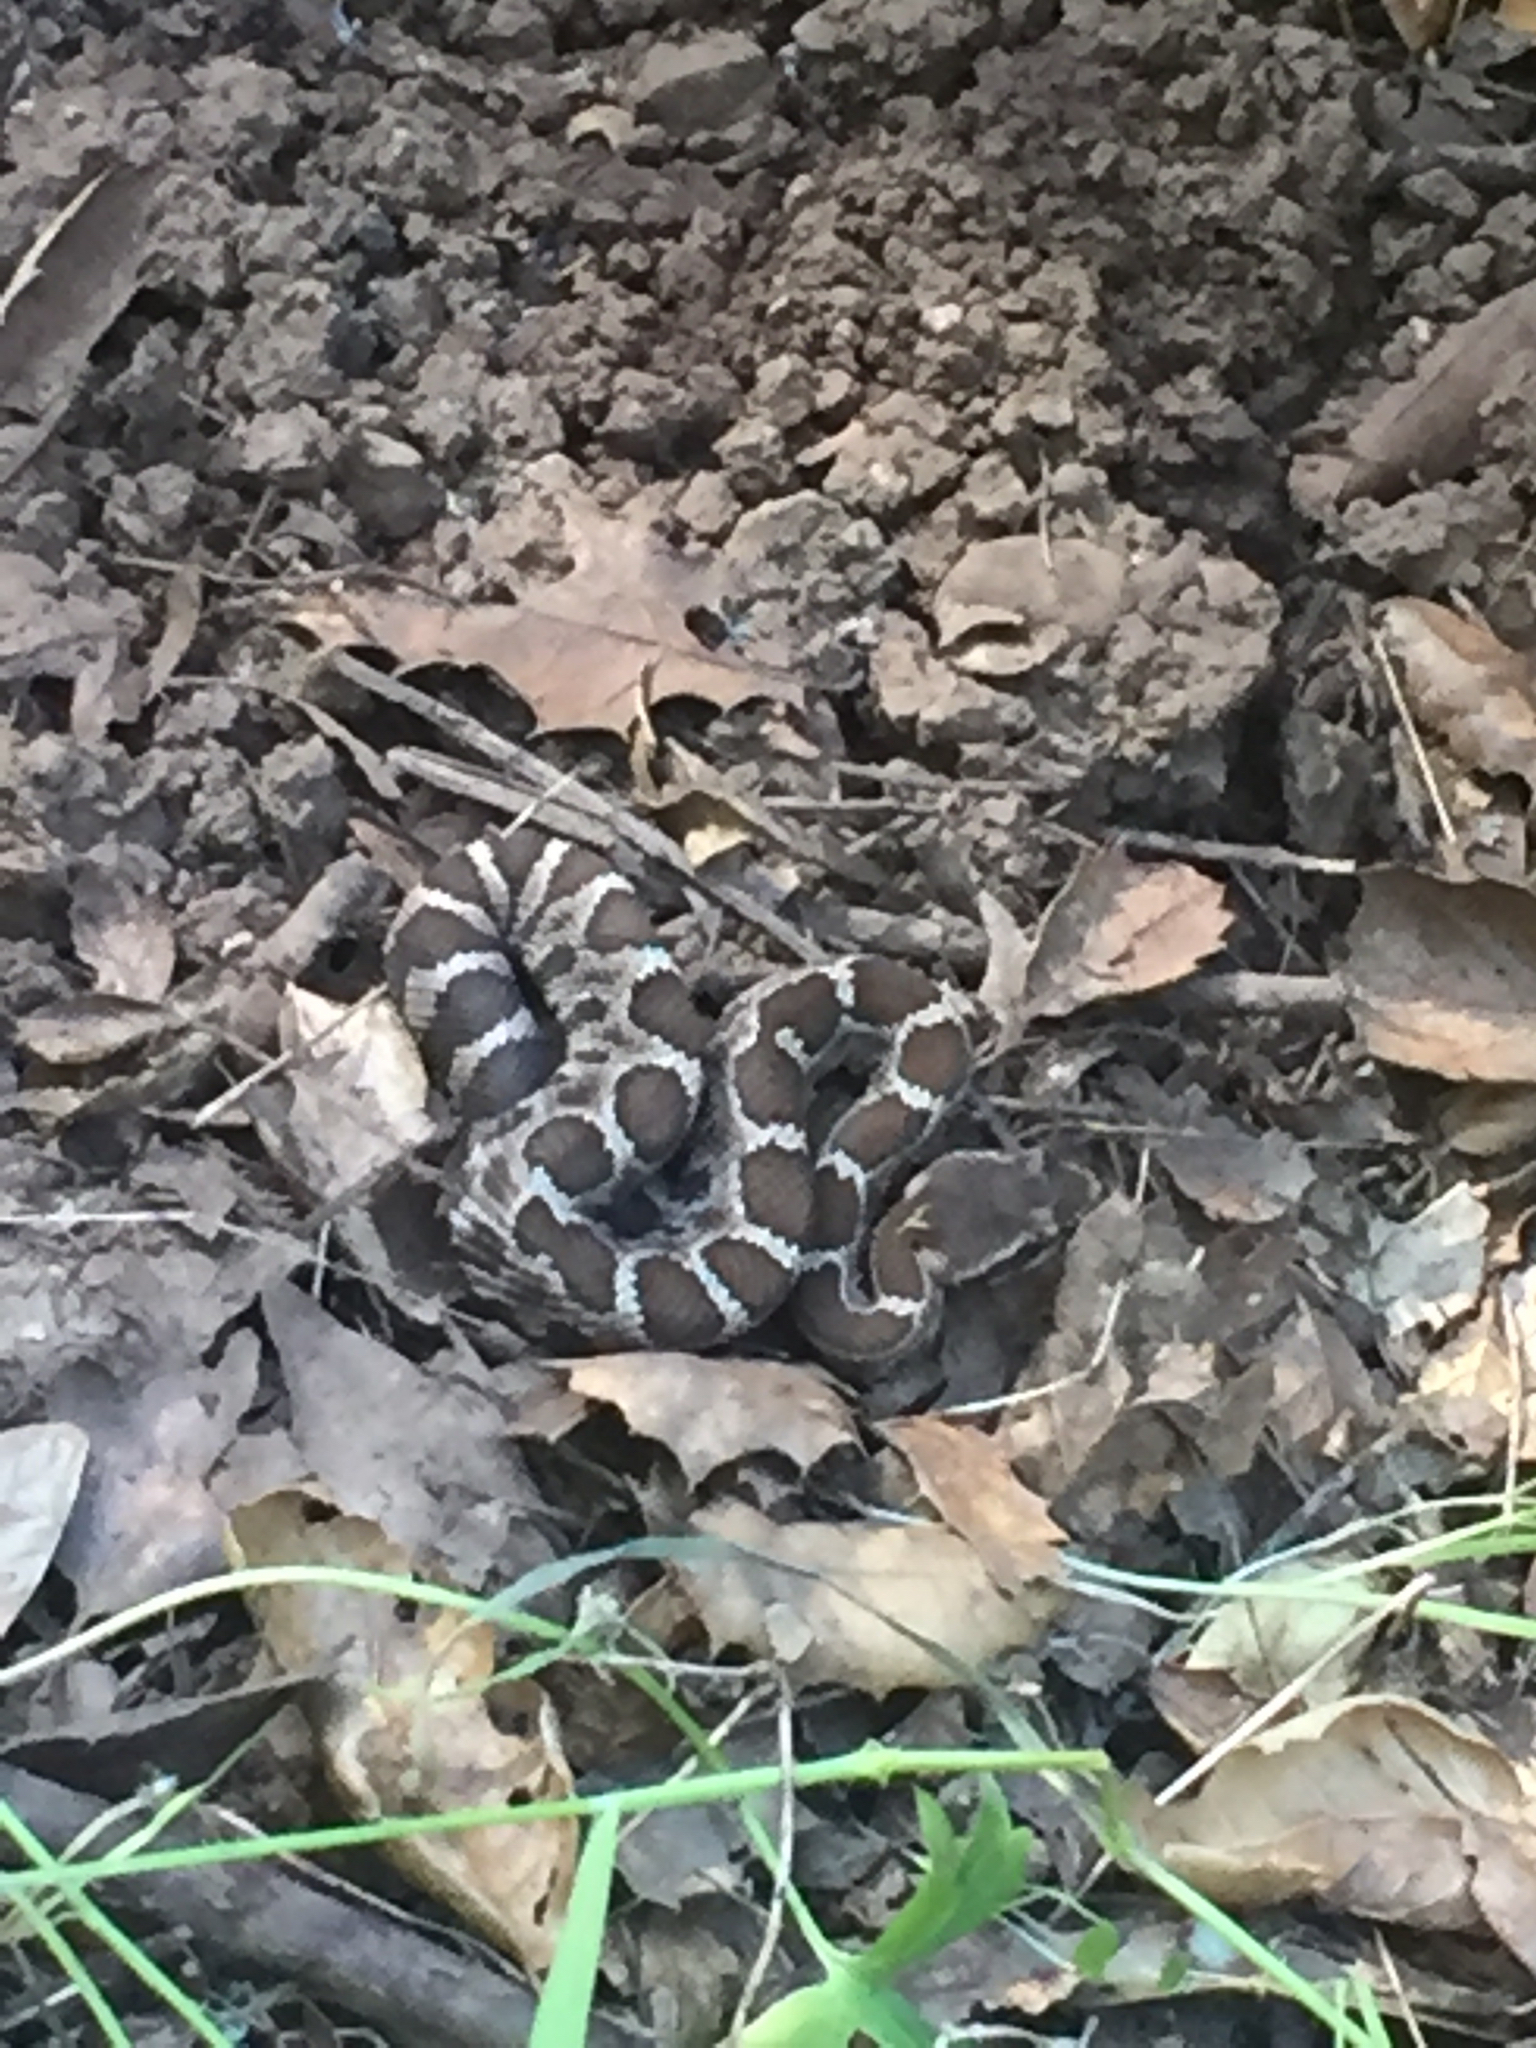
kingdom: Animalia
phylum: Chordata
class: Squamata
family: Viperidae
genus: Crotalus
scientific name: Crotalus oreganus
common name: Abyssus
